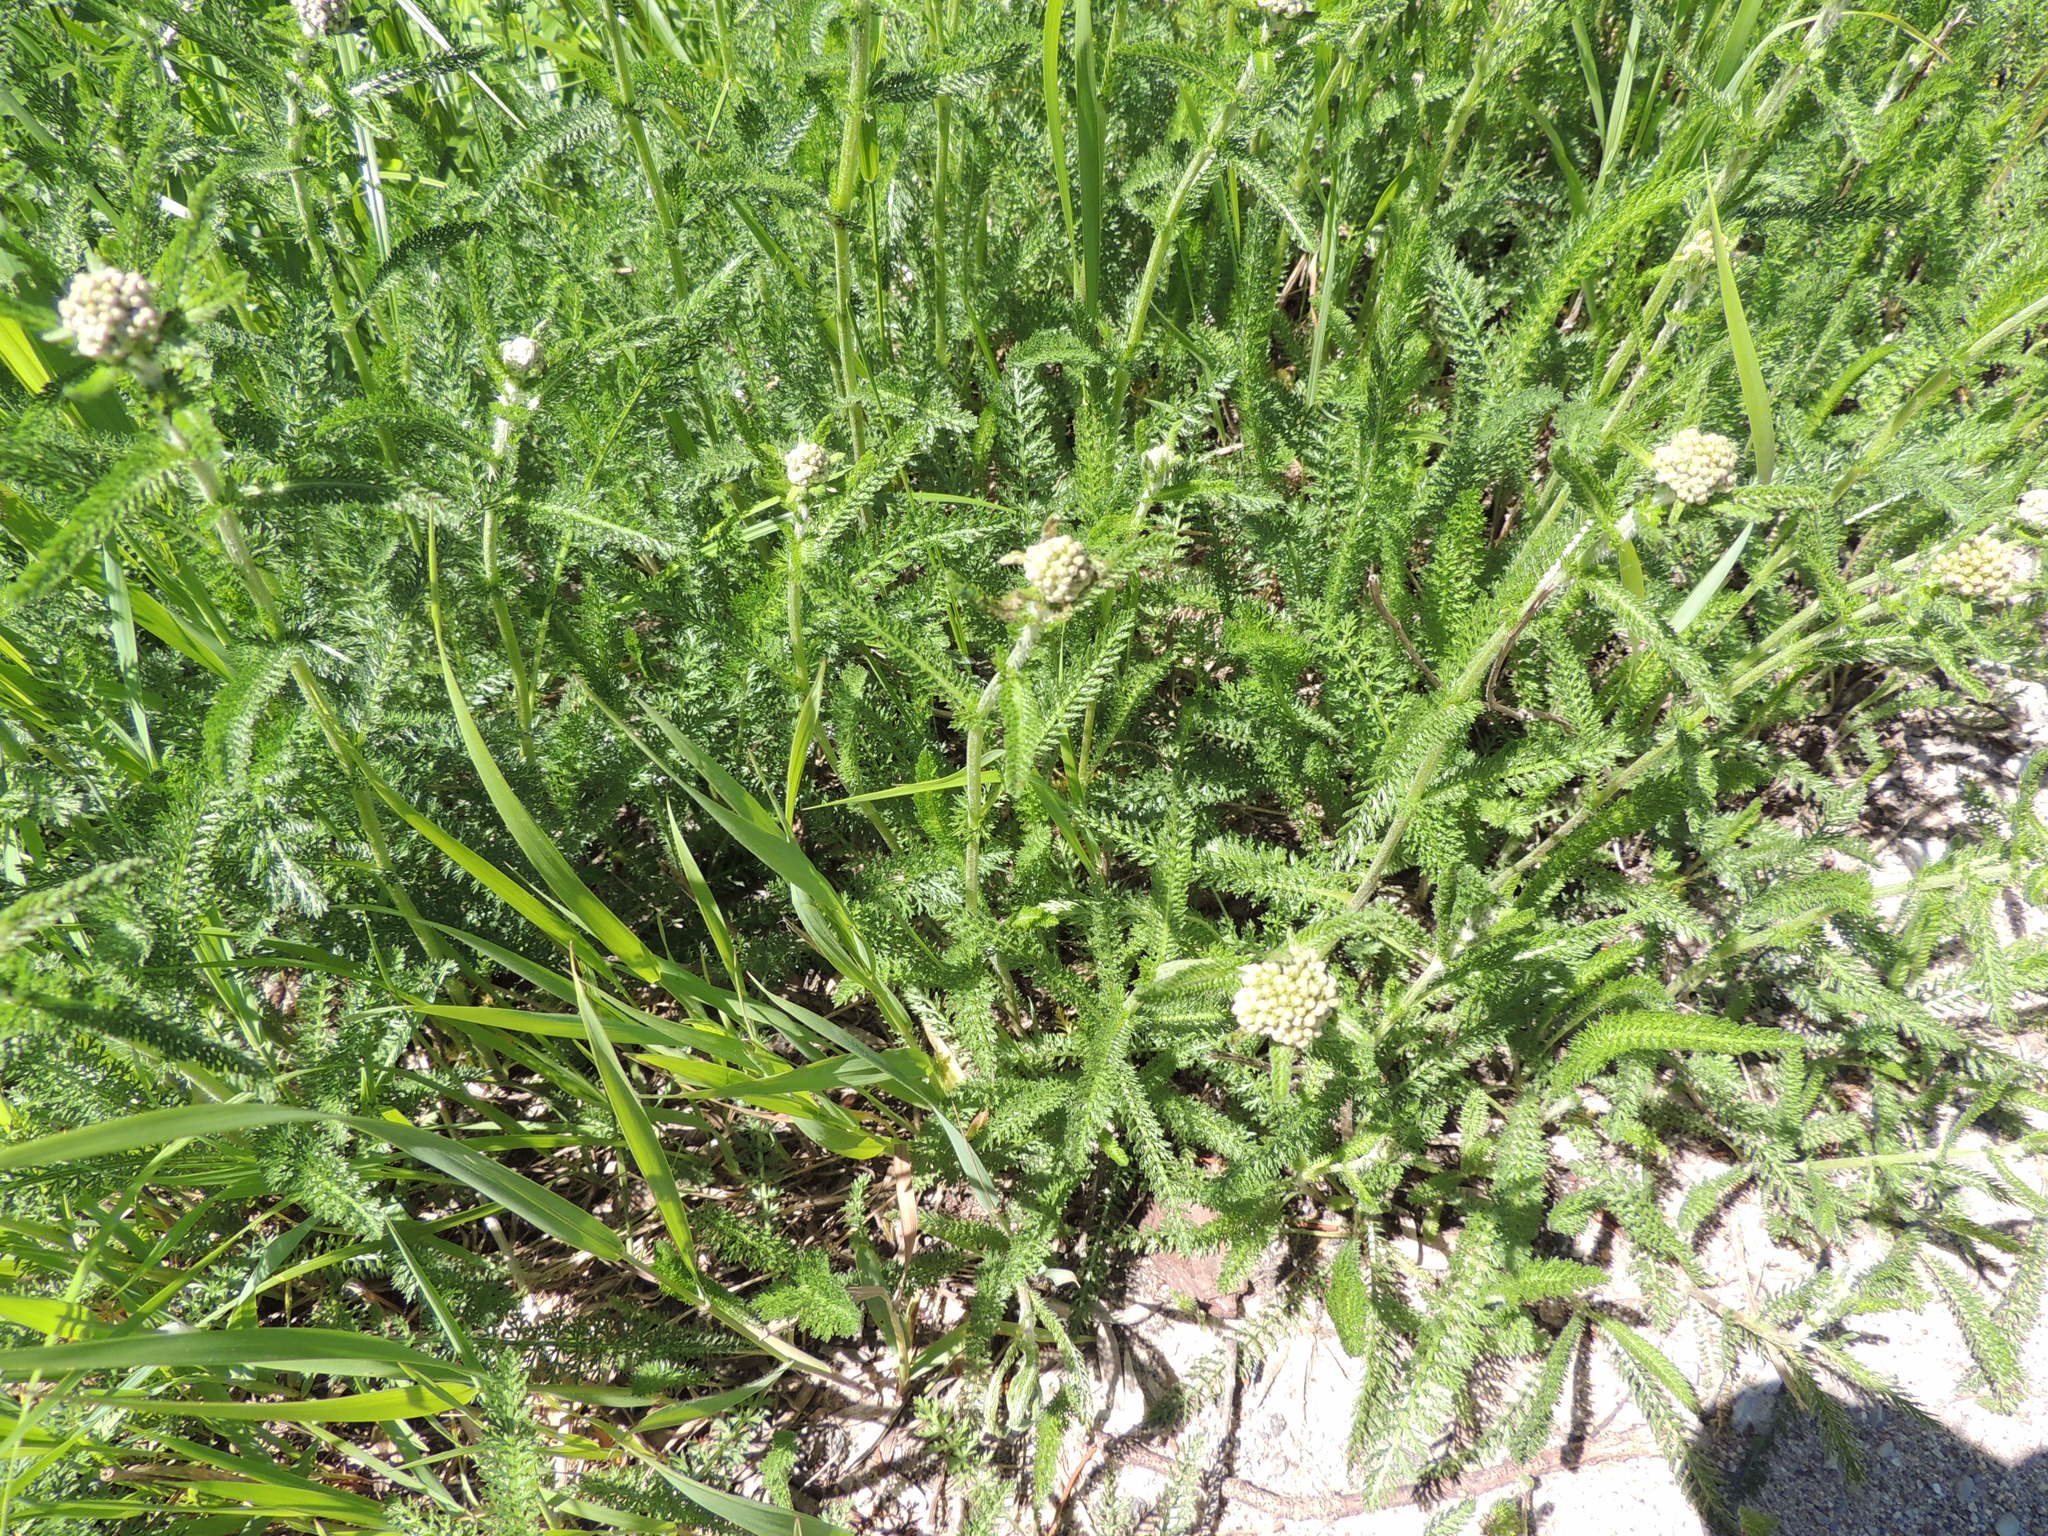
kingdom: Plantae
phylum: Tracheophyta
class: Magnoliopsida
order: Asterales
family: Asteraceae
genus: Achillea
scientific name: Achillea millefolium
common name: Yarrow
